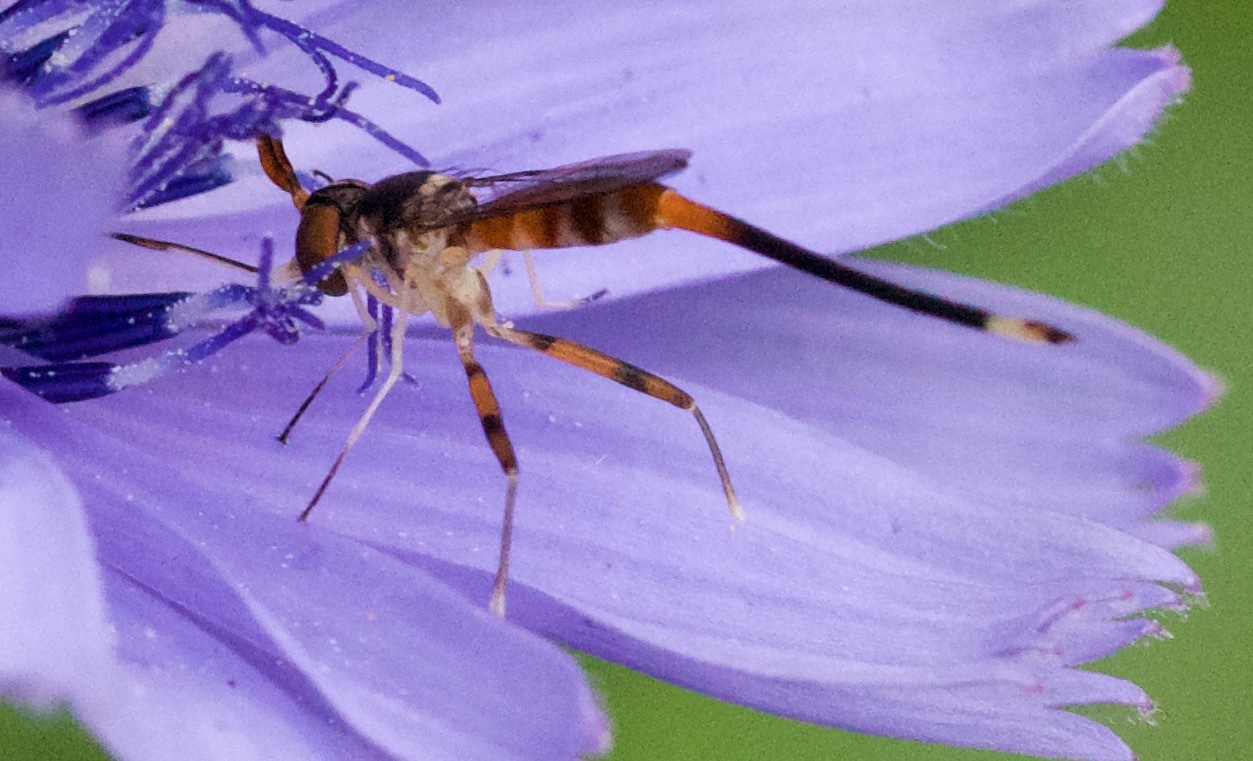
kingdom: Animalia
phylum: Arthropoda
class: Insecta
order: Diptera
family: Conopidae
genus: Stylogaster
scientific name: Stylogaster neglecta
